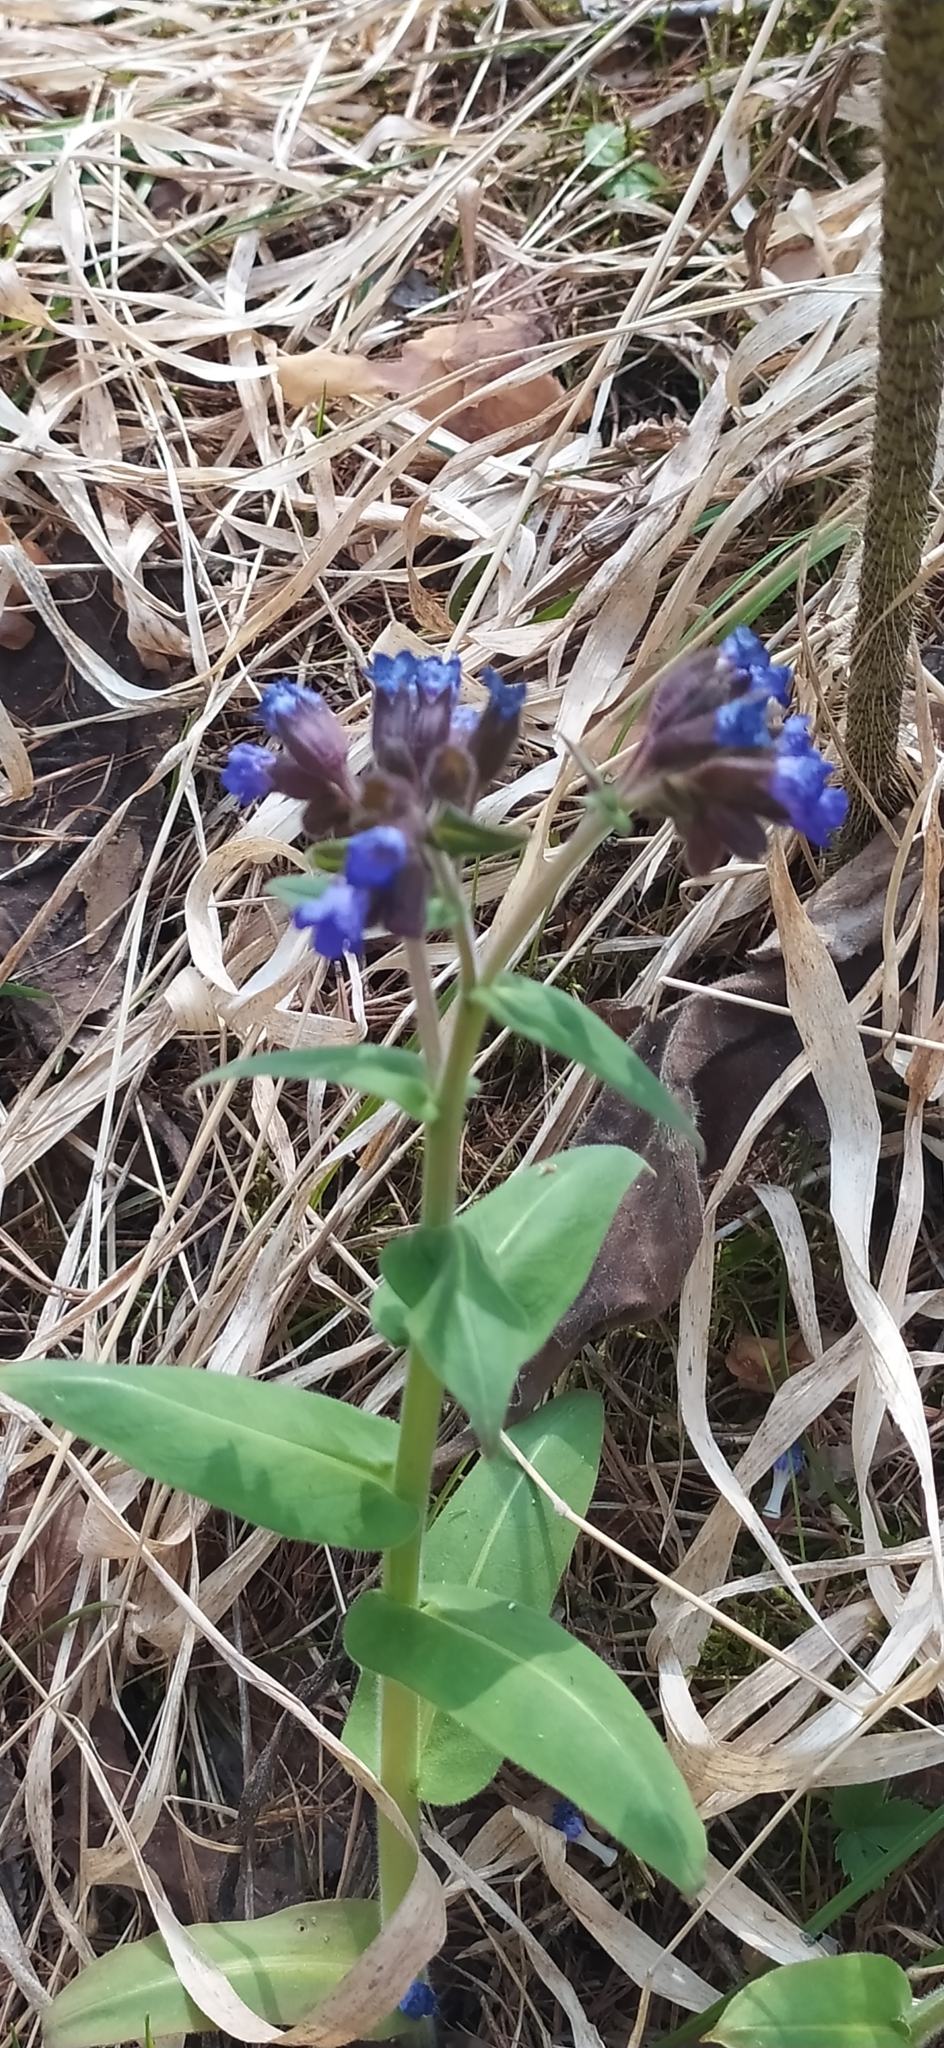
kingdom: Plantae
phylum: Tracheophyta
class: Magnoliopsida
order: Boraginales
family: Boraginaceae
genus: Pulmonaria
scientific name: Pulmonaria mollis
